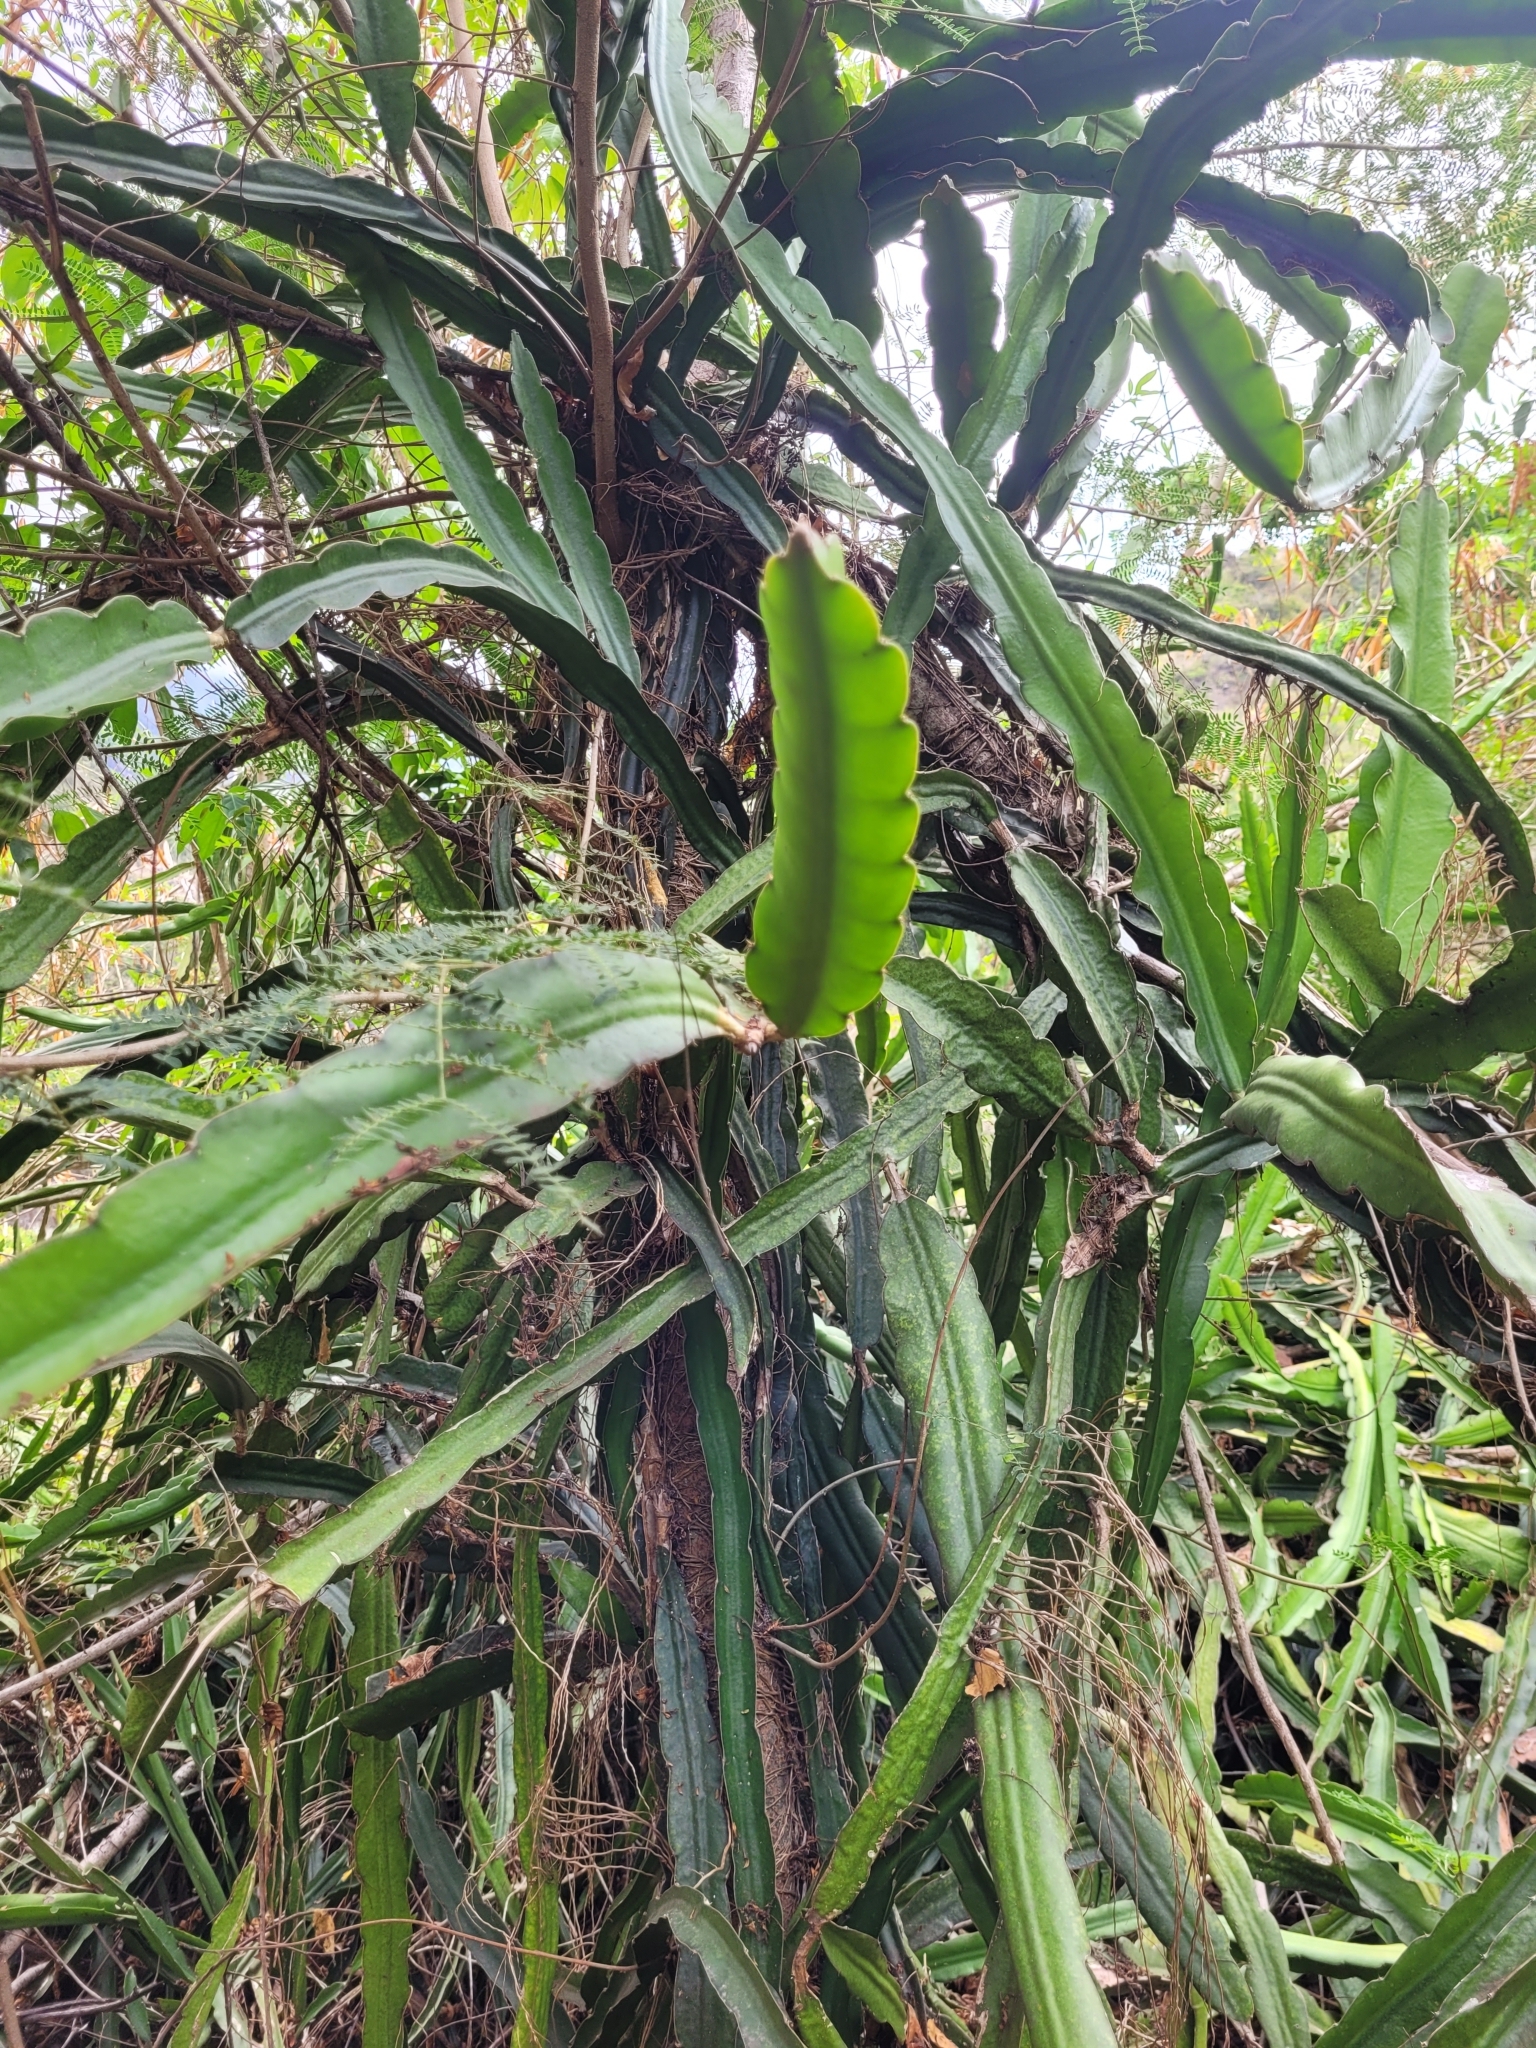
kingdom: Plantae
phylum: Tracheophyta
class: Magnoliopsida
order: Caryophyllales
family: Cactaceae
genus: Selenicereus
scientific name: Selenicereus undatus
